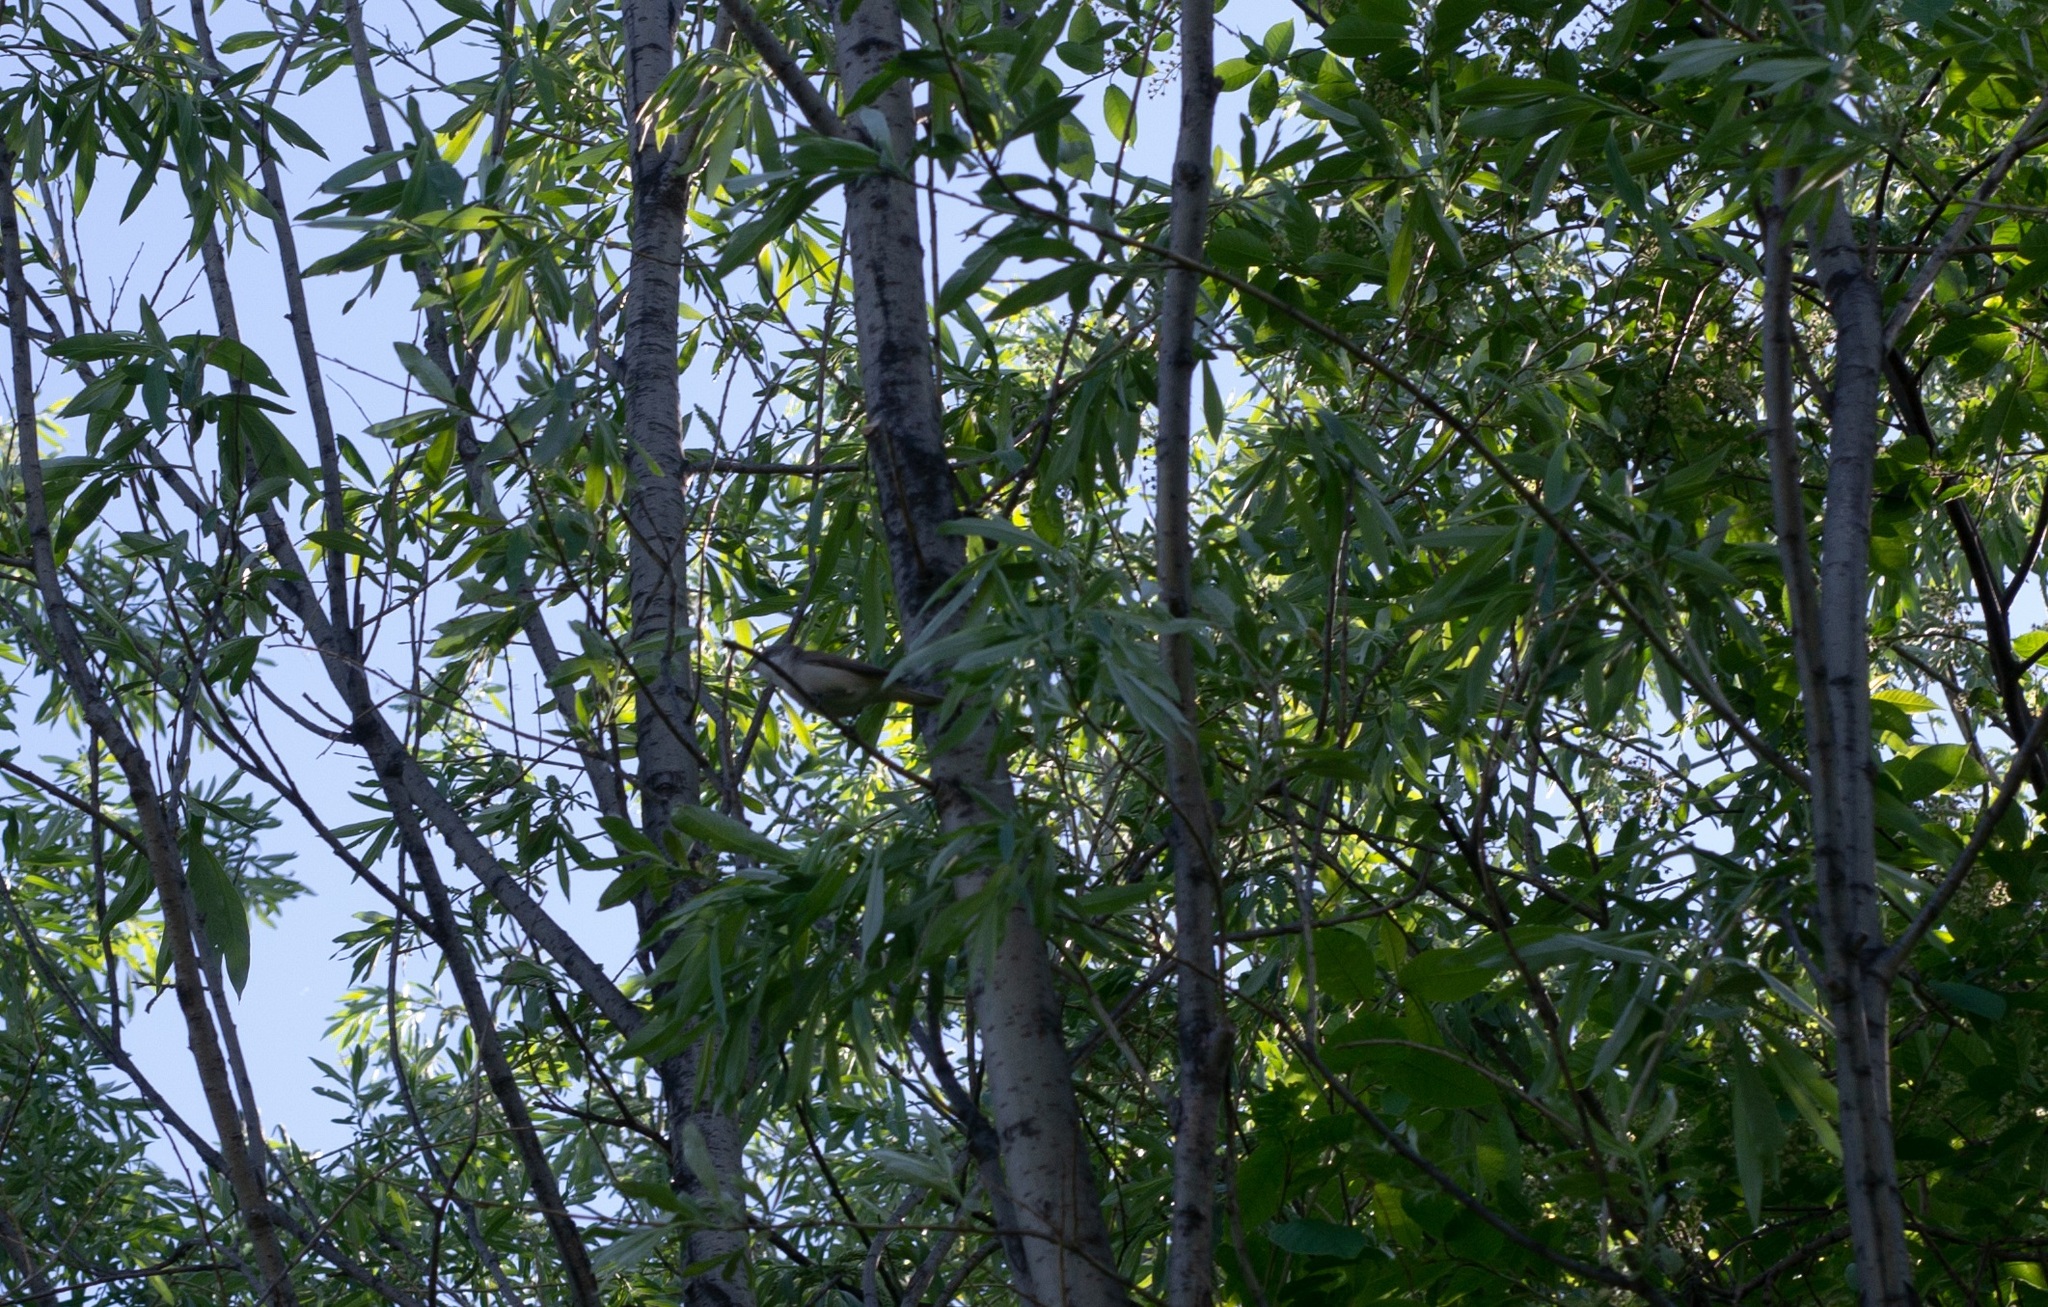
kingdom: Animalia
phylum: Chordata
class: Aves
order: Passeriformes
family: Sylviidae
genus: Sylvia
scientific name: Sylvia curruca
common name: Lesser whitethroat
